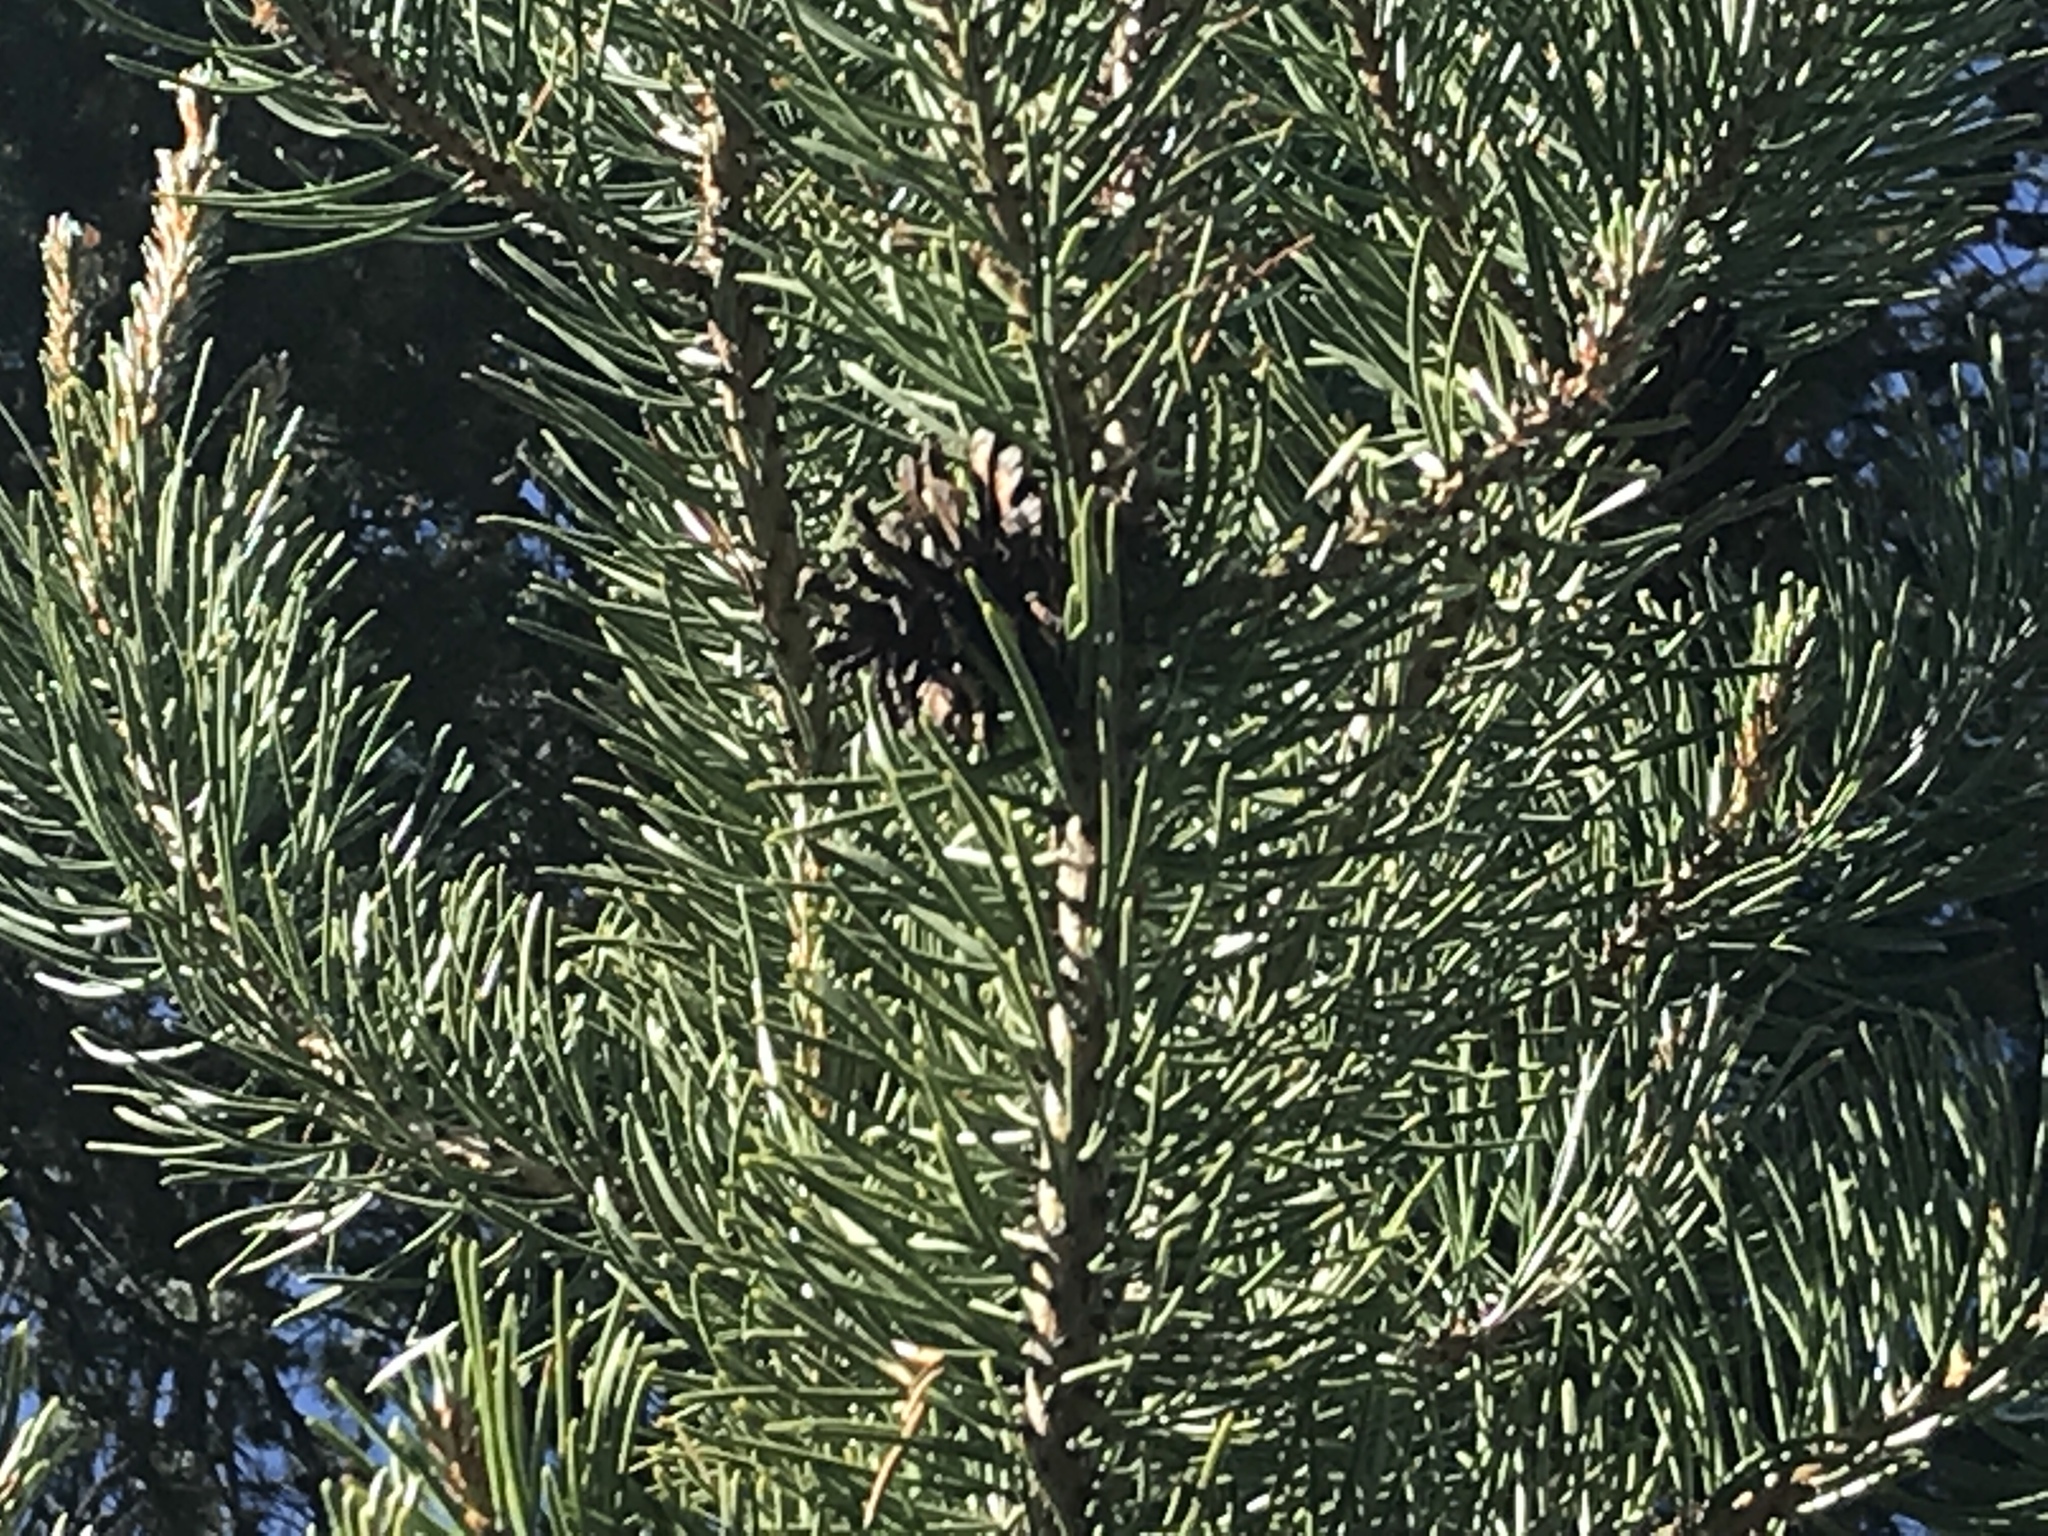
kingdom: Plantae
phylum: Tracheophyta
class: Pinopsida
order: Pinales
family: Pinaceae
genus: Pinus
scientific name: Pinus contorta
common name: Lodgepole pine
